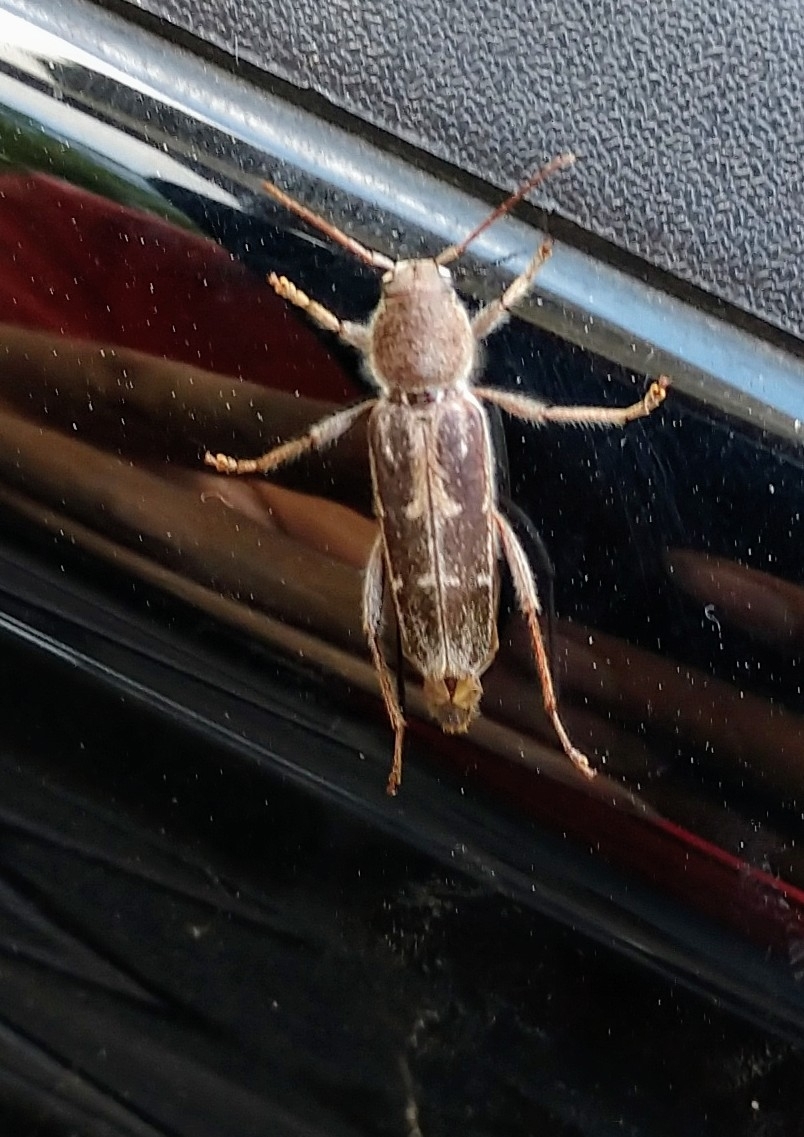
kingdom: Animalia
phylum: Arthropoda
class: Insecta
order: Coleoptera
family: Cerambycidae
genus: Xylotrechus
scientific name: Xylotrechus sagittatus
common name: Arrowhead borer
